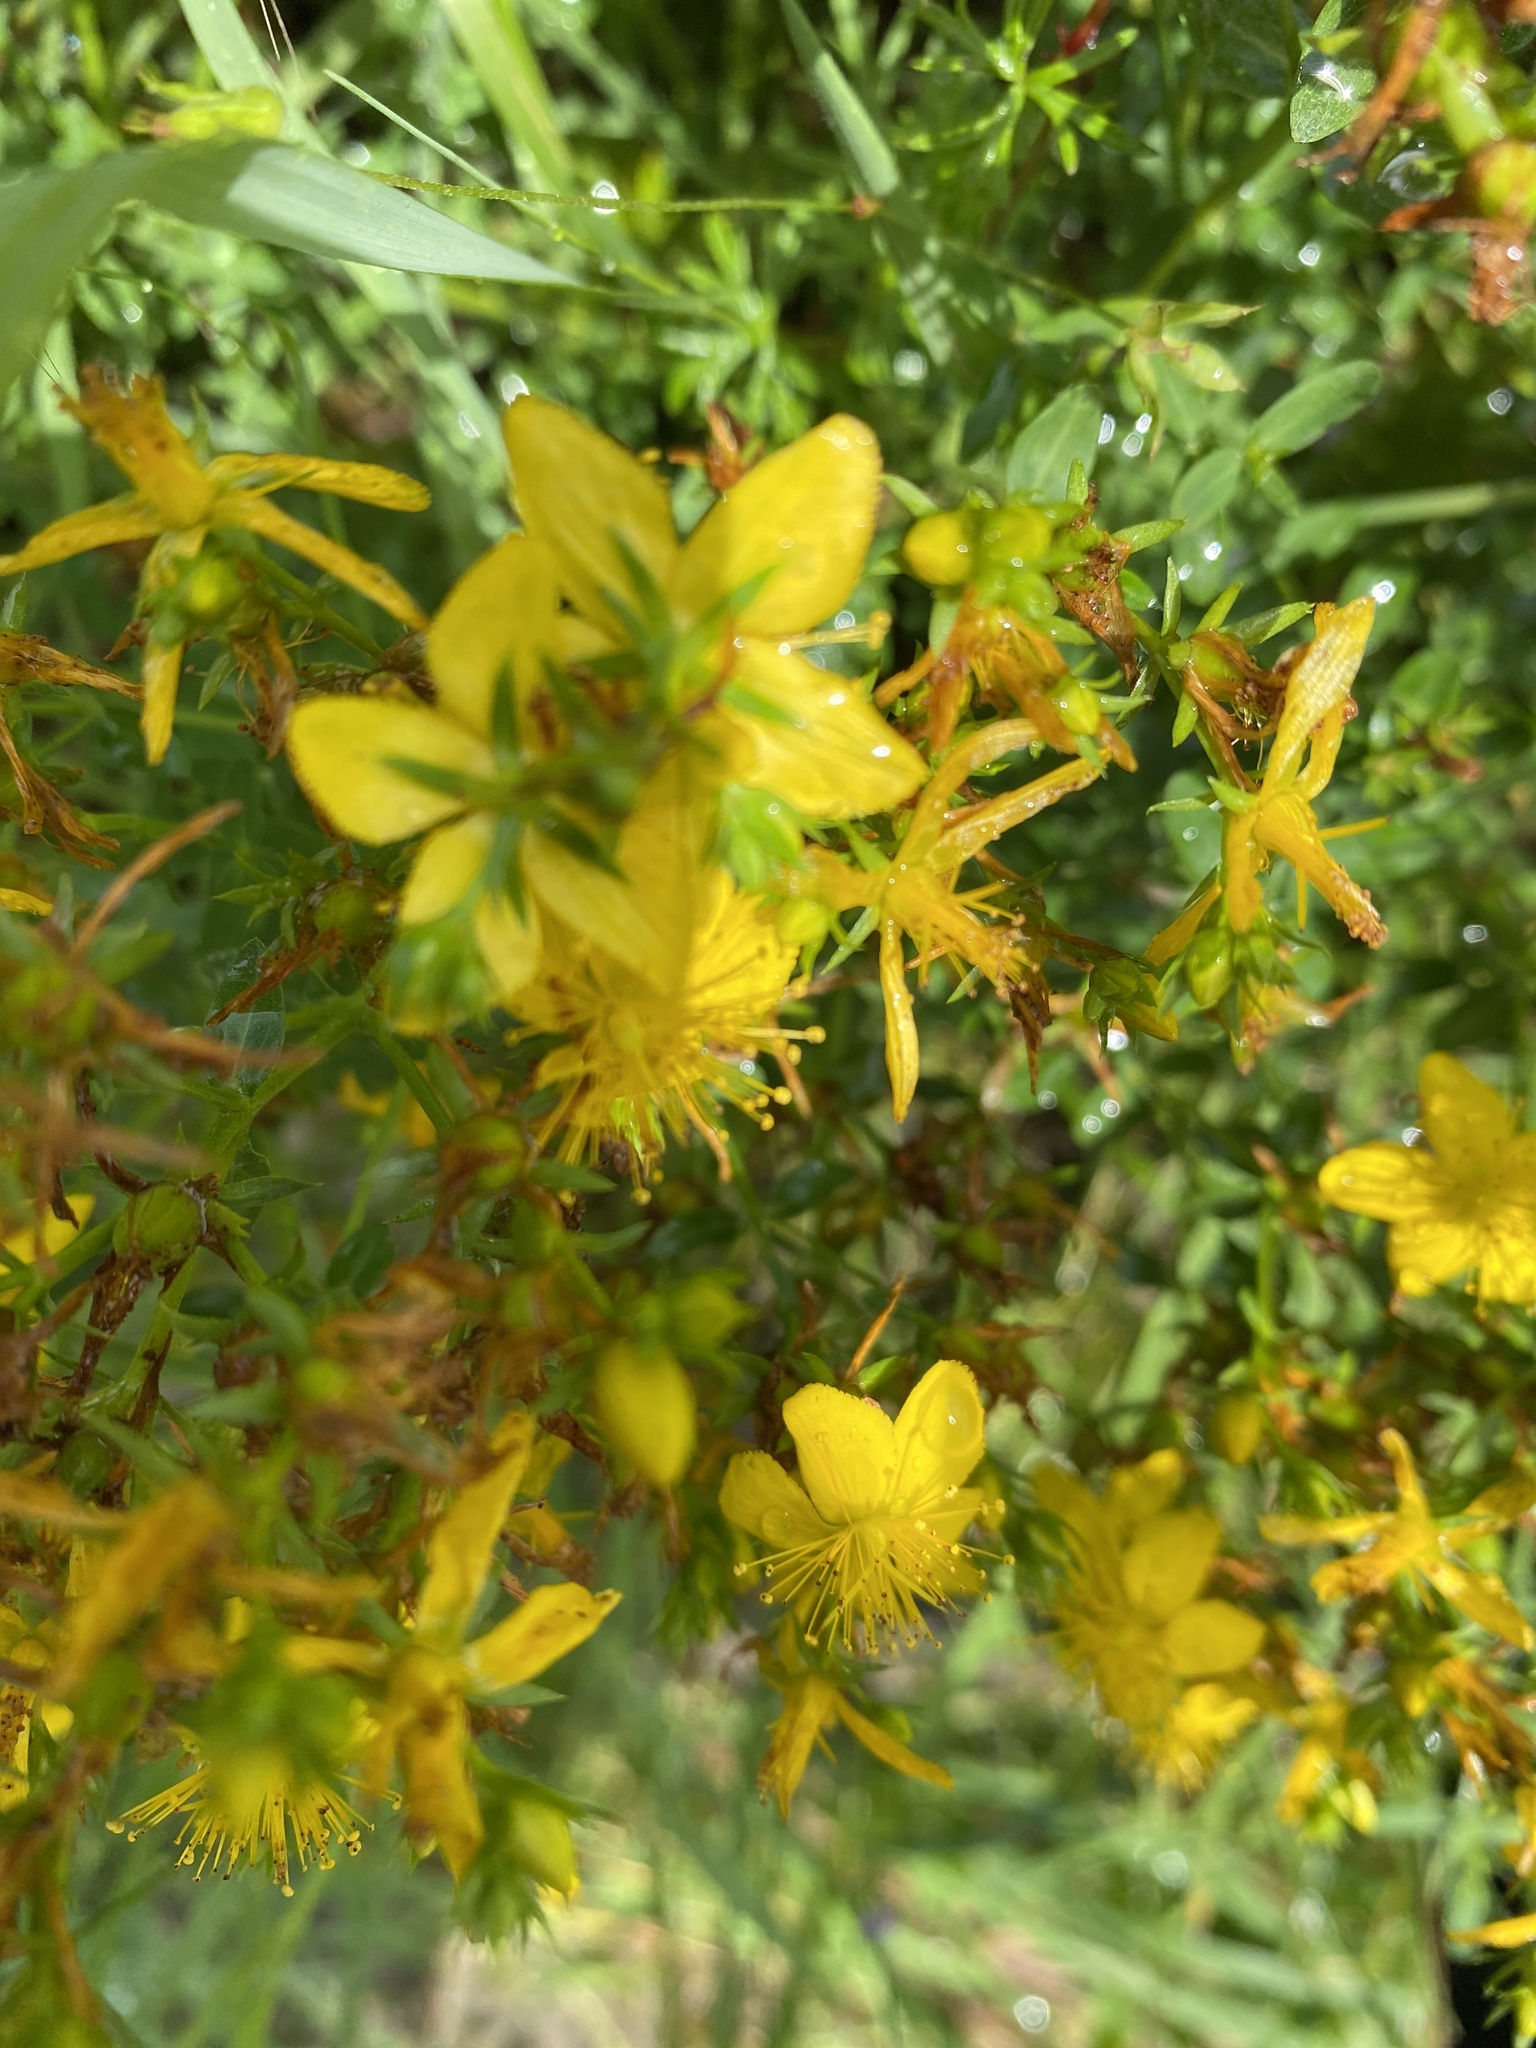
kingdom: Plantae
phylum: Tracheophyta
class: Magnoliopsida
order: Malpighiales
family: Hypericaceae
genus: Hypericum
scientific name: Hypericum perforatum
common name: Common st. johnswort
